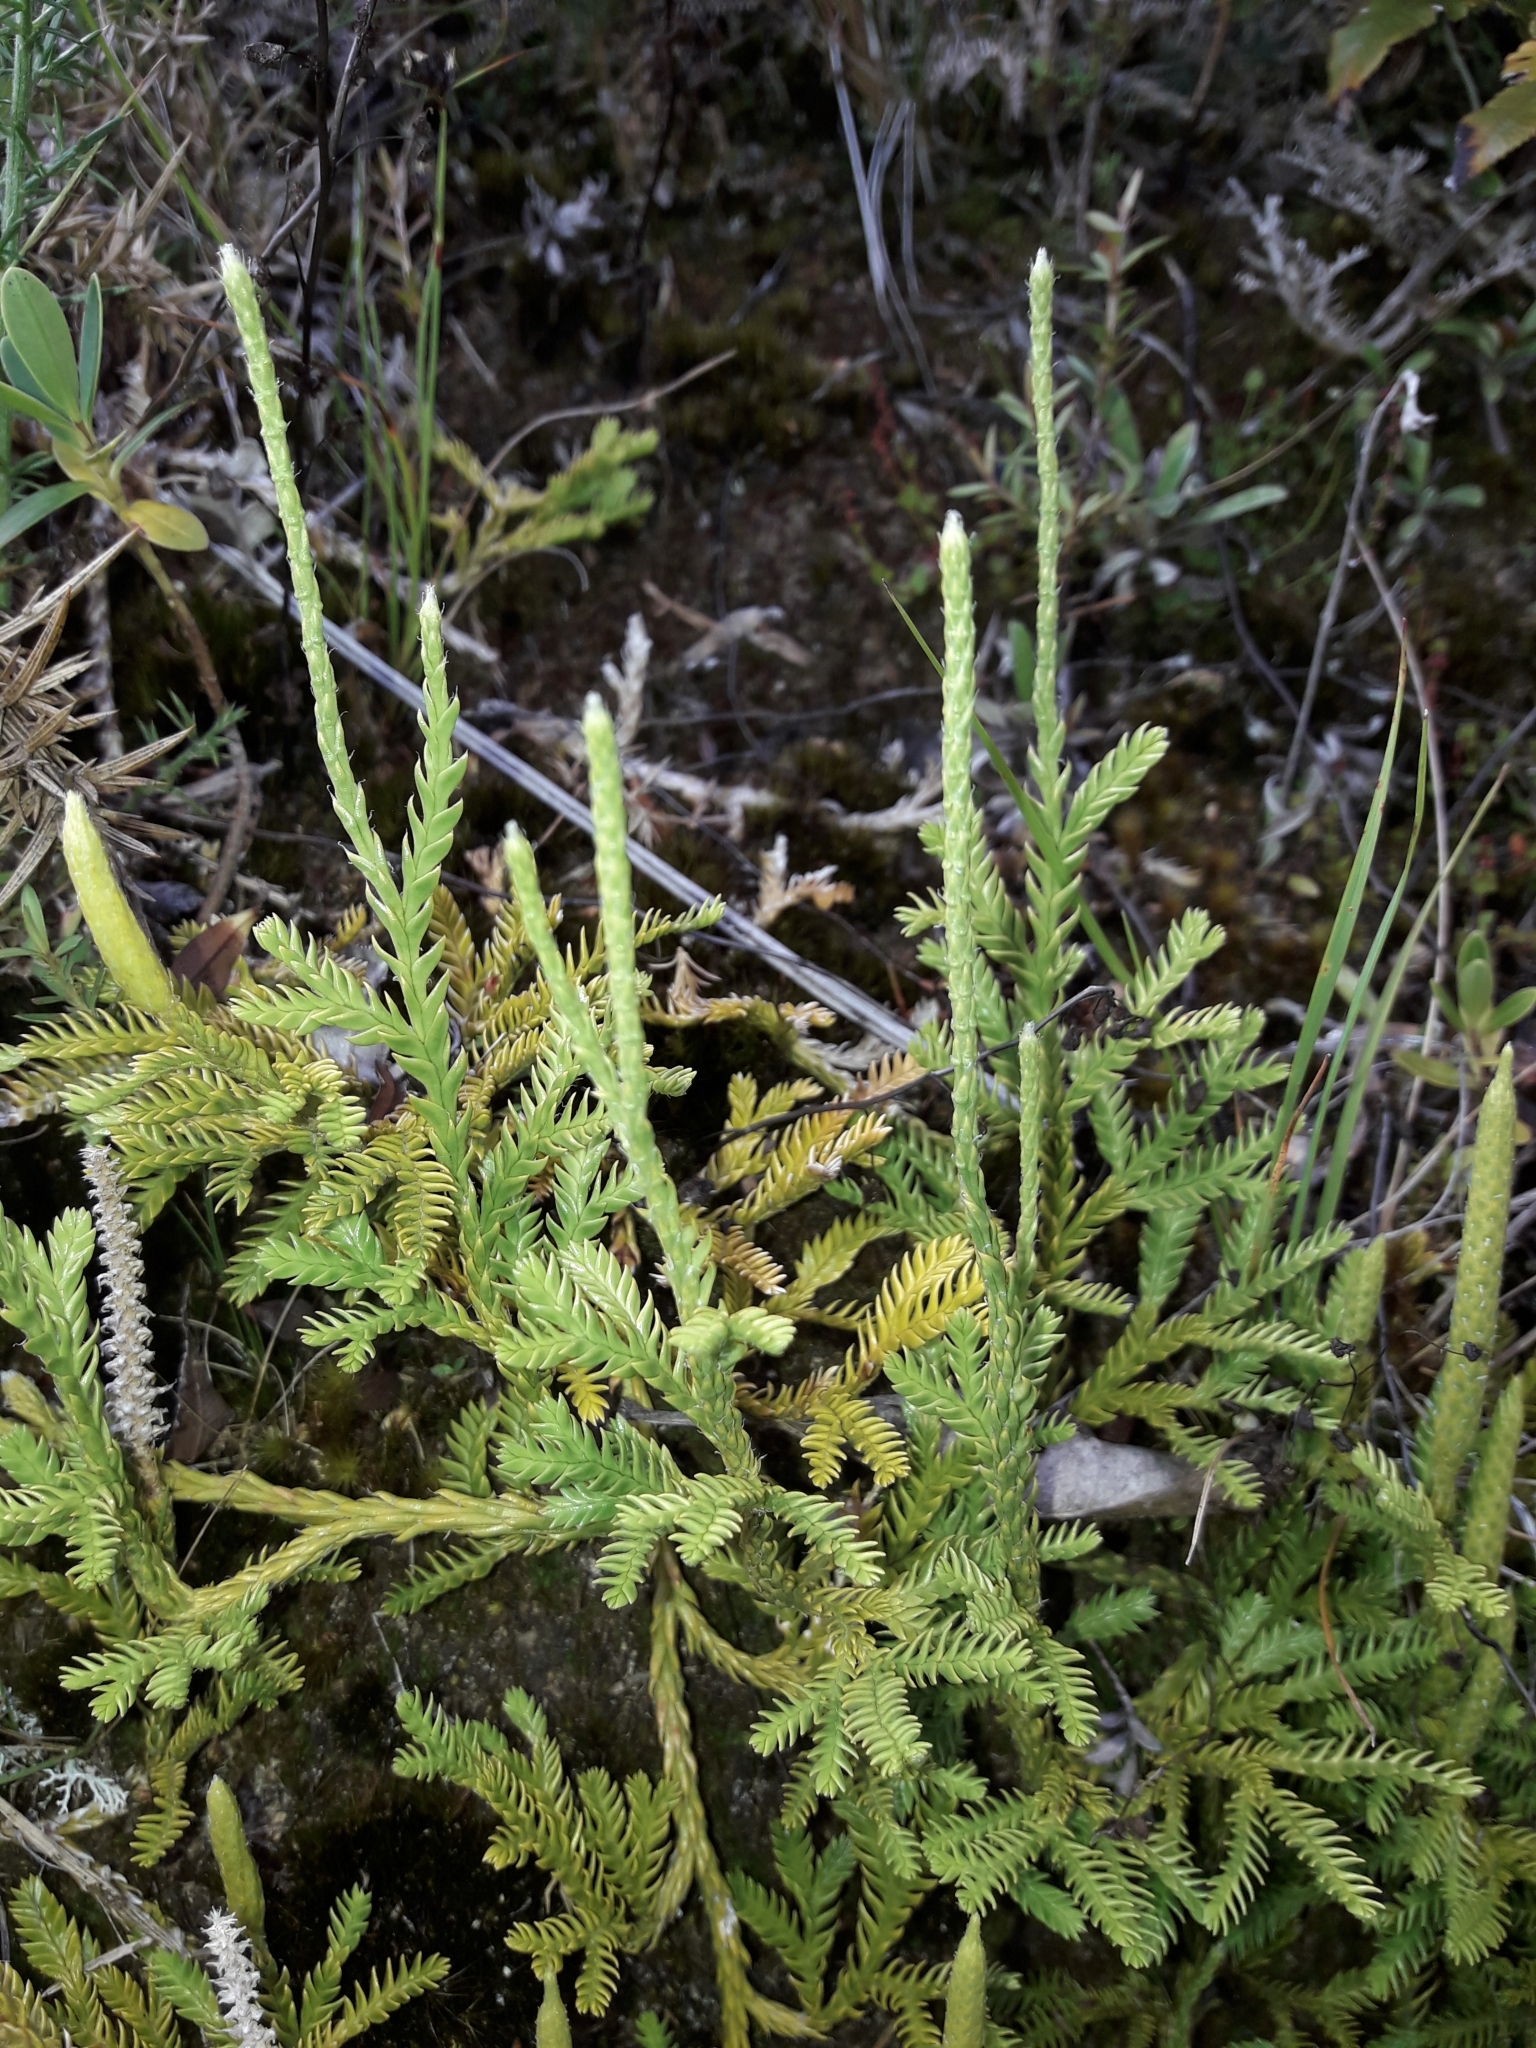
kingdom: Plantae
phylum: Tracheophyta
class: Lycopodiopsida
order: Lycopodiales
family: Lycopodiaceae
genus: Diphasium
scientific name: Diphasium scariosum
